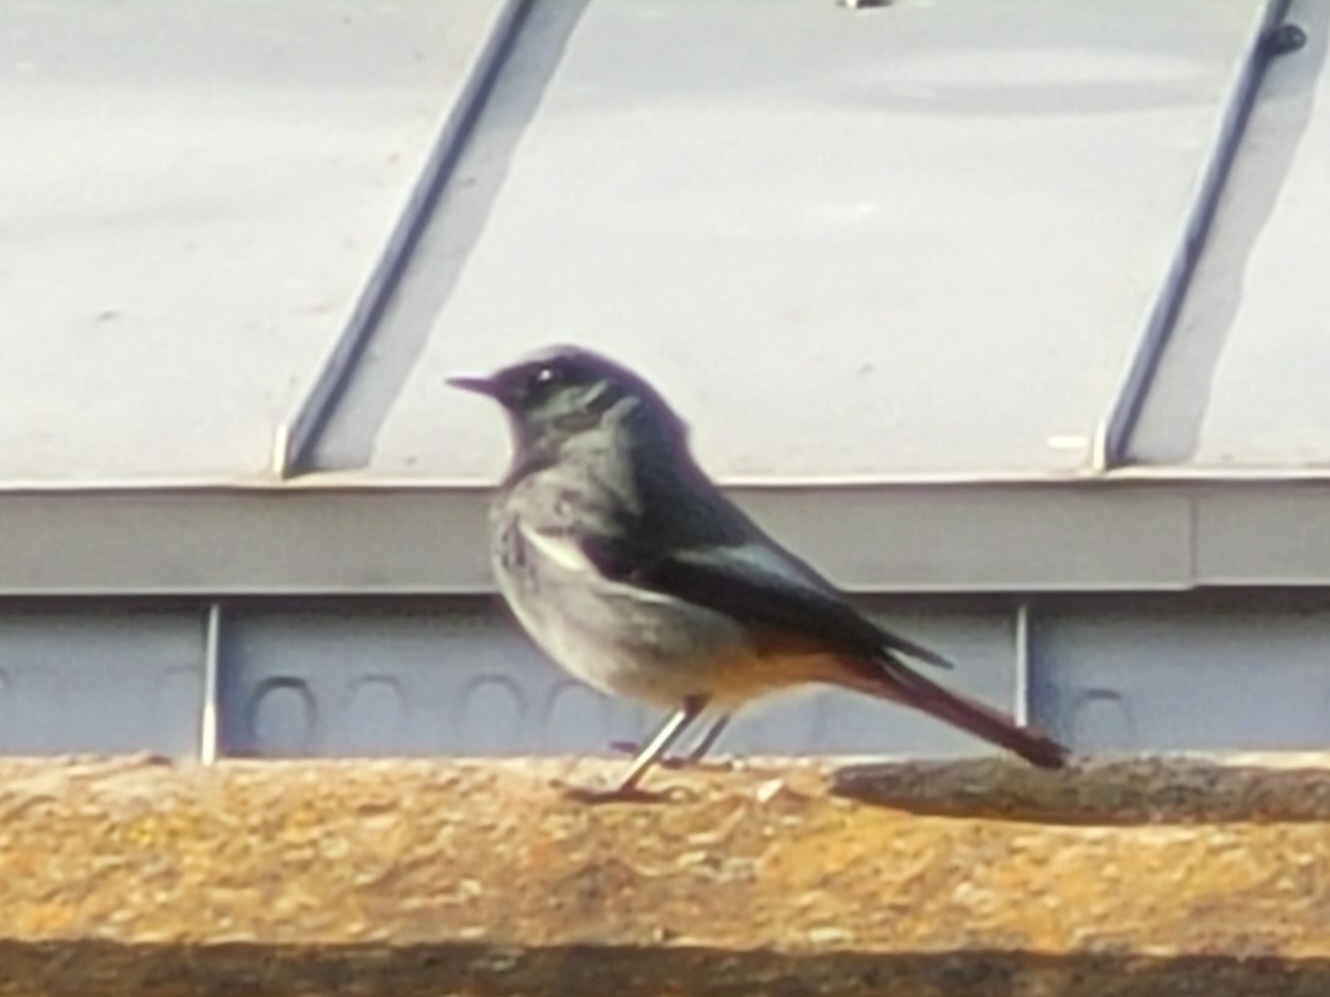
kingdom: Animalia
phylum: Chordata
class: Aves
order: Passeriformes
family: Muscicapidae
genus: Phoenicurus
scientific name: Phoenicurus ochruros
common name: Black redstart
